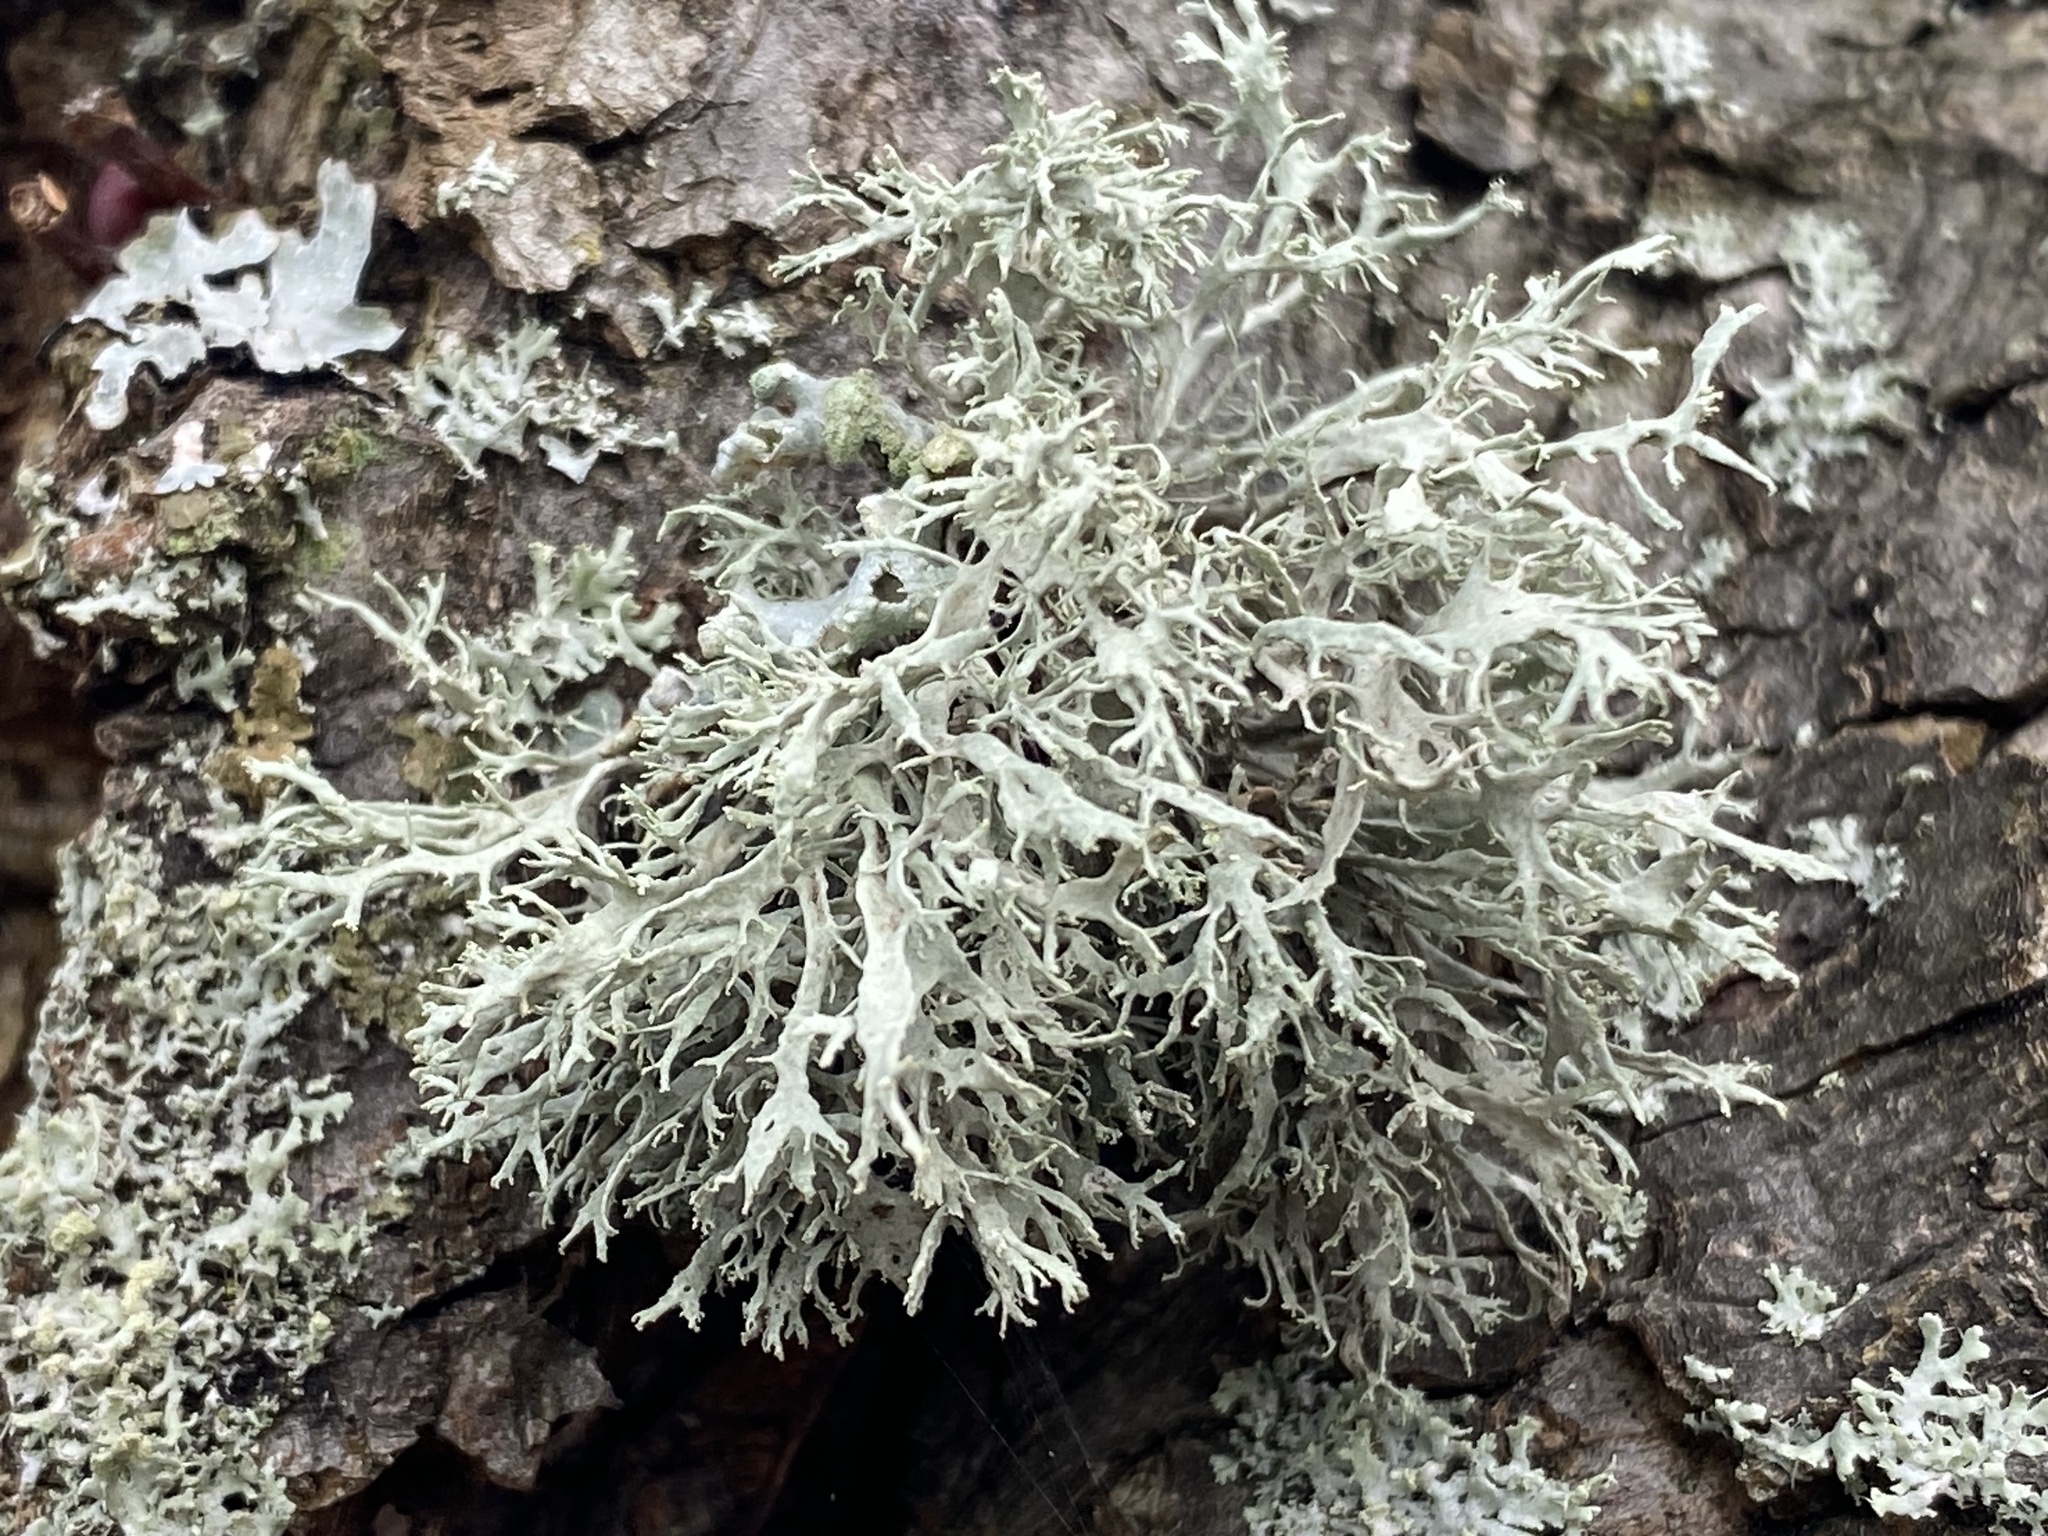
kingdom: Fungi
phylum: Ascomycota
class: Lecanoromycetes
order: Lecanorales
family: Ramalinaceae
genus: Ramalina
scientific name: Ramalina farinacea
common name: Farinose cartilage lichen
